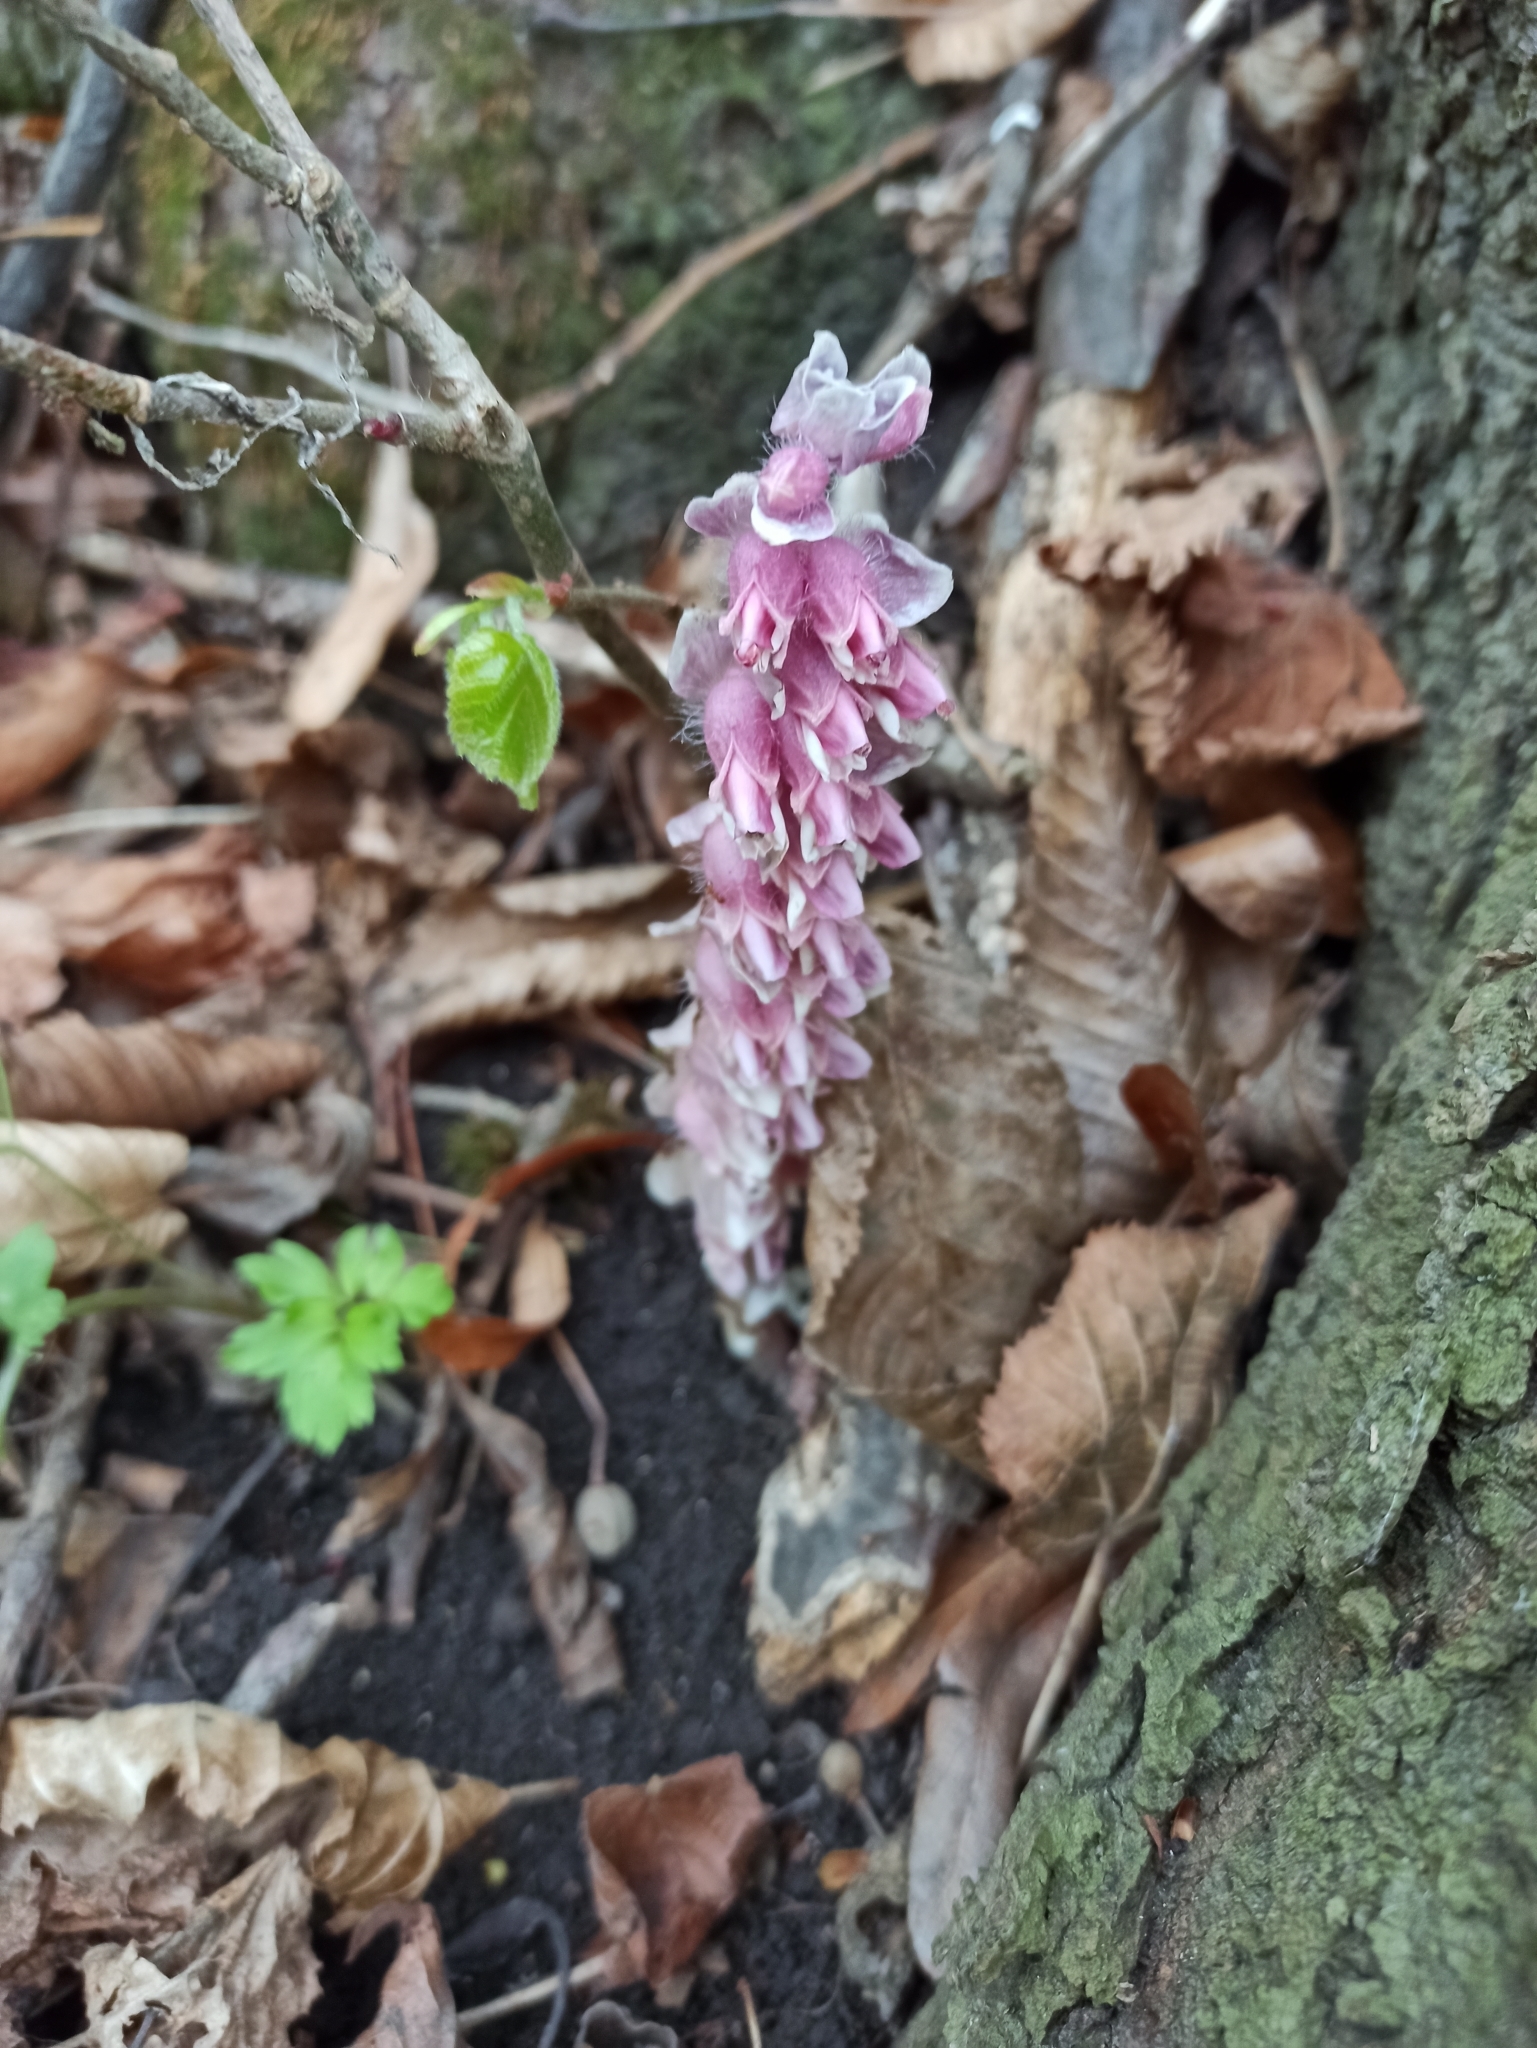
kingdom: Plantae
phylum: Tracheophyta
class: Magnoliopsida
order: Lamiales
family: Orobanchaceae
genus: Lathraea
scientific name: Lathraea squamaria
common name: Toothwort
